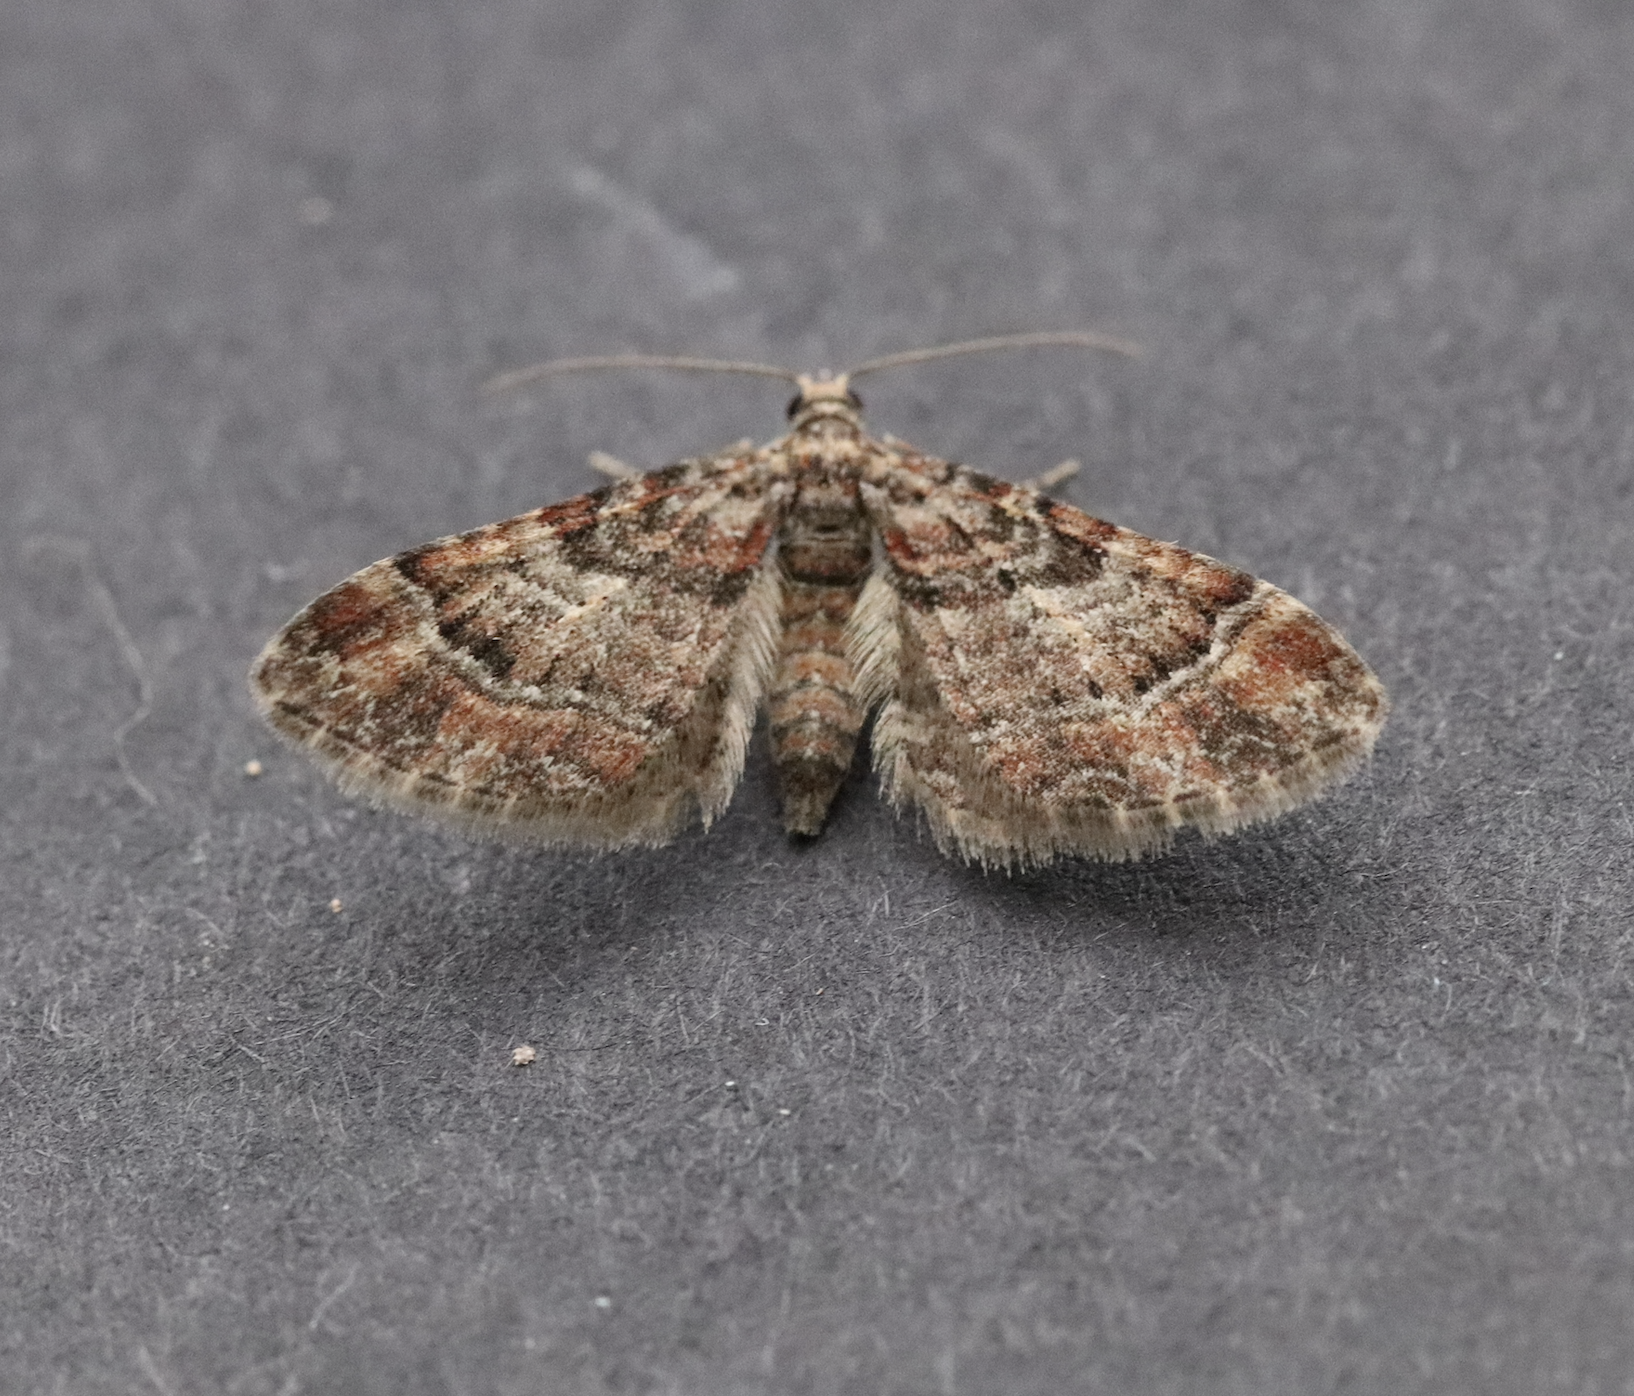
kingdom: Animalia
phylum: Arthropoda
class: Insecta
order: Lepidoptera
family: Geometridae
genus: Gymnoscelis
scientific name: Gymnoscelis rufifasciata
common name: Double-striped pug
